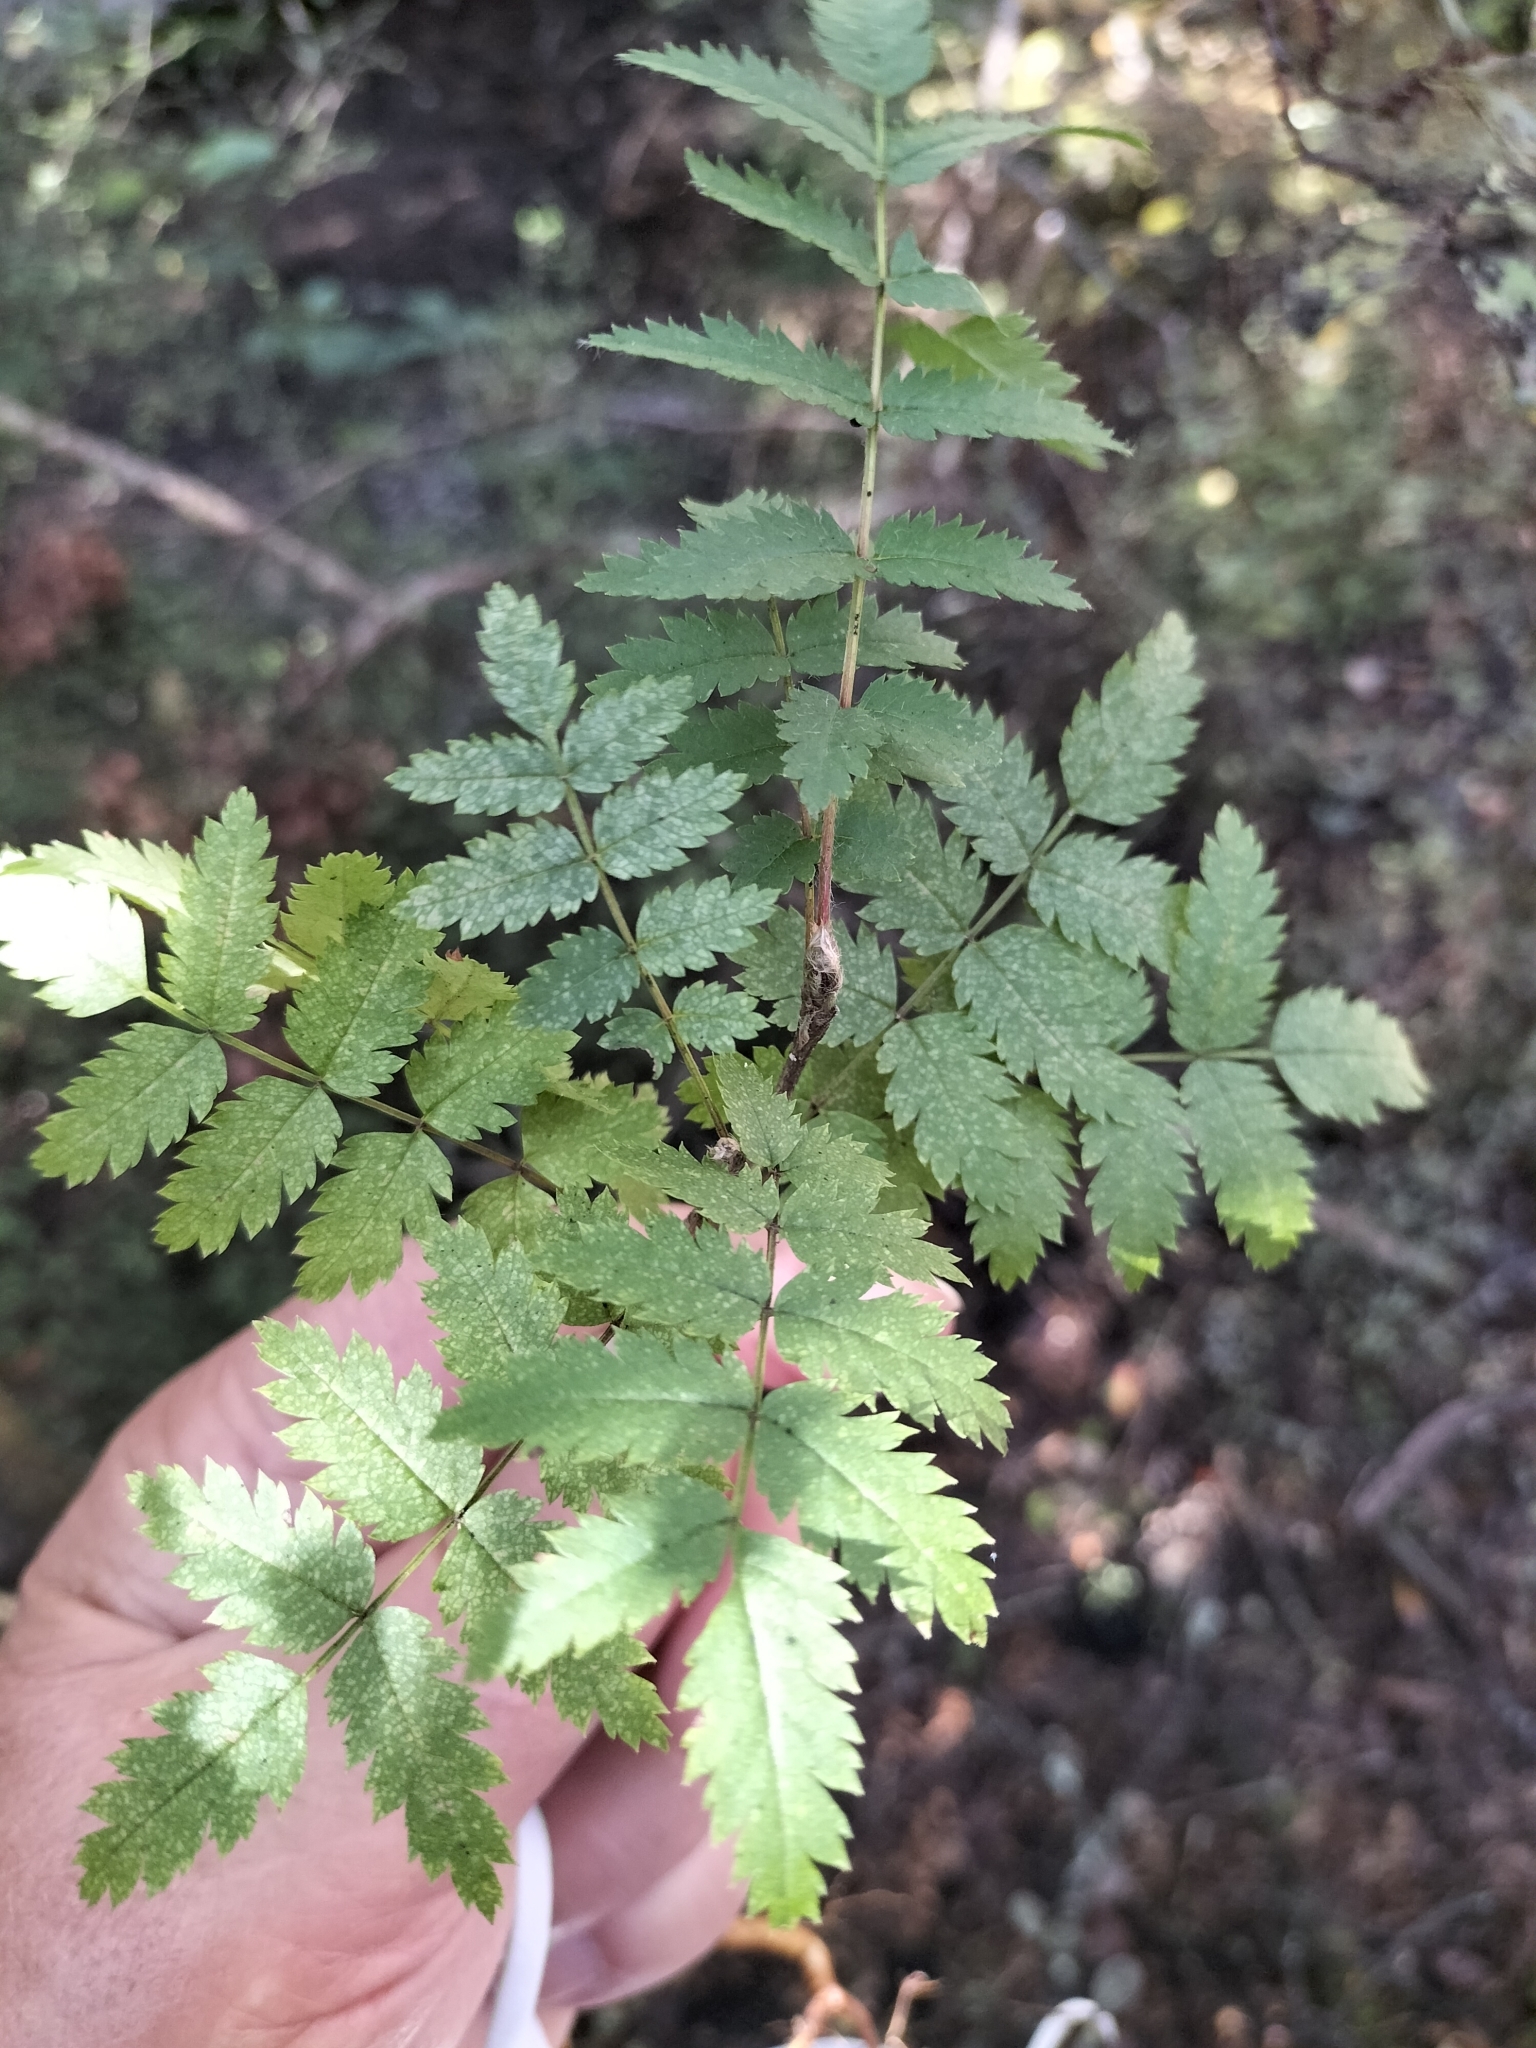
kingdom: Plantae
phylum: Tracheophyta
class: Magnoliopsida
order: Rosales
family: Rosaceae
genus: Sorbus
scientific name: Sorbus aucuparia
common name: Rowan
